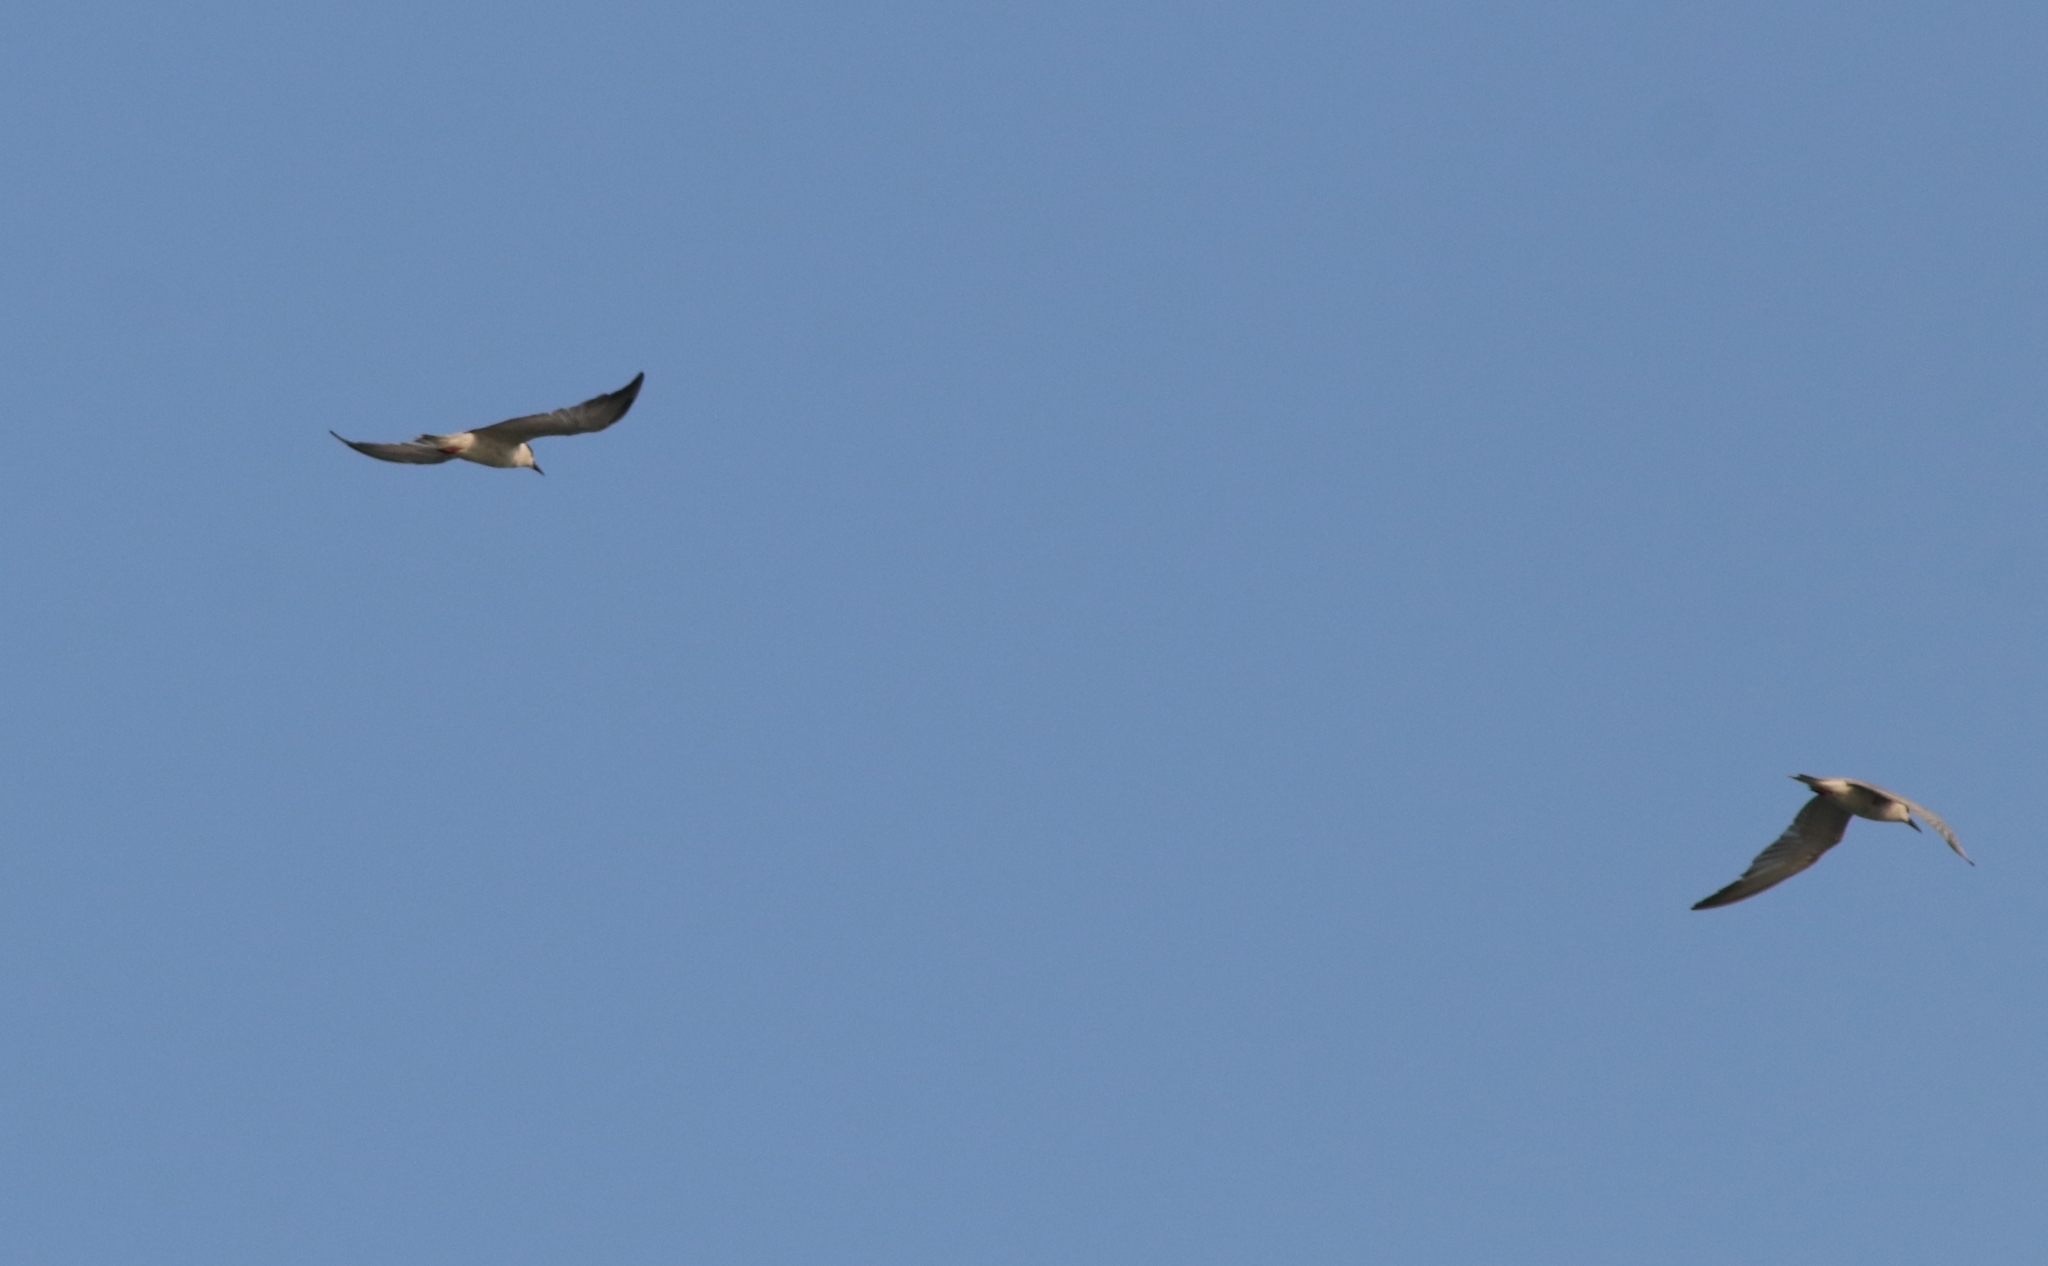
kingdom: Animalia
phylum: Chordata
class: Aves
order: Charadriiformes
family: Laridae
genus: Chlidonias
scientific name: Chlidonias hybrida
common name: Whiskered tern
